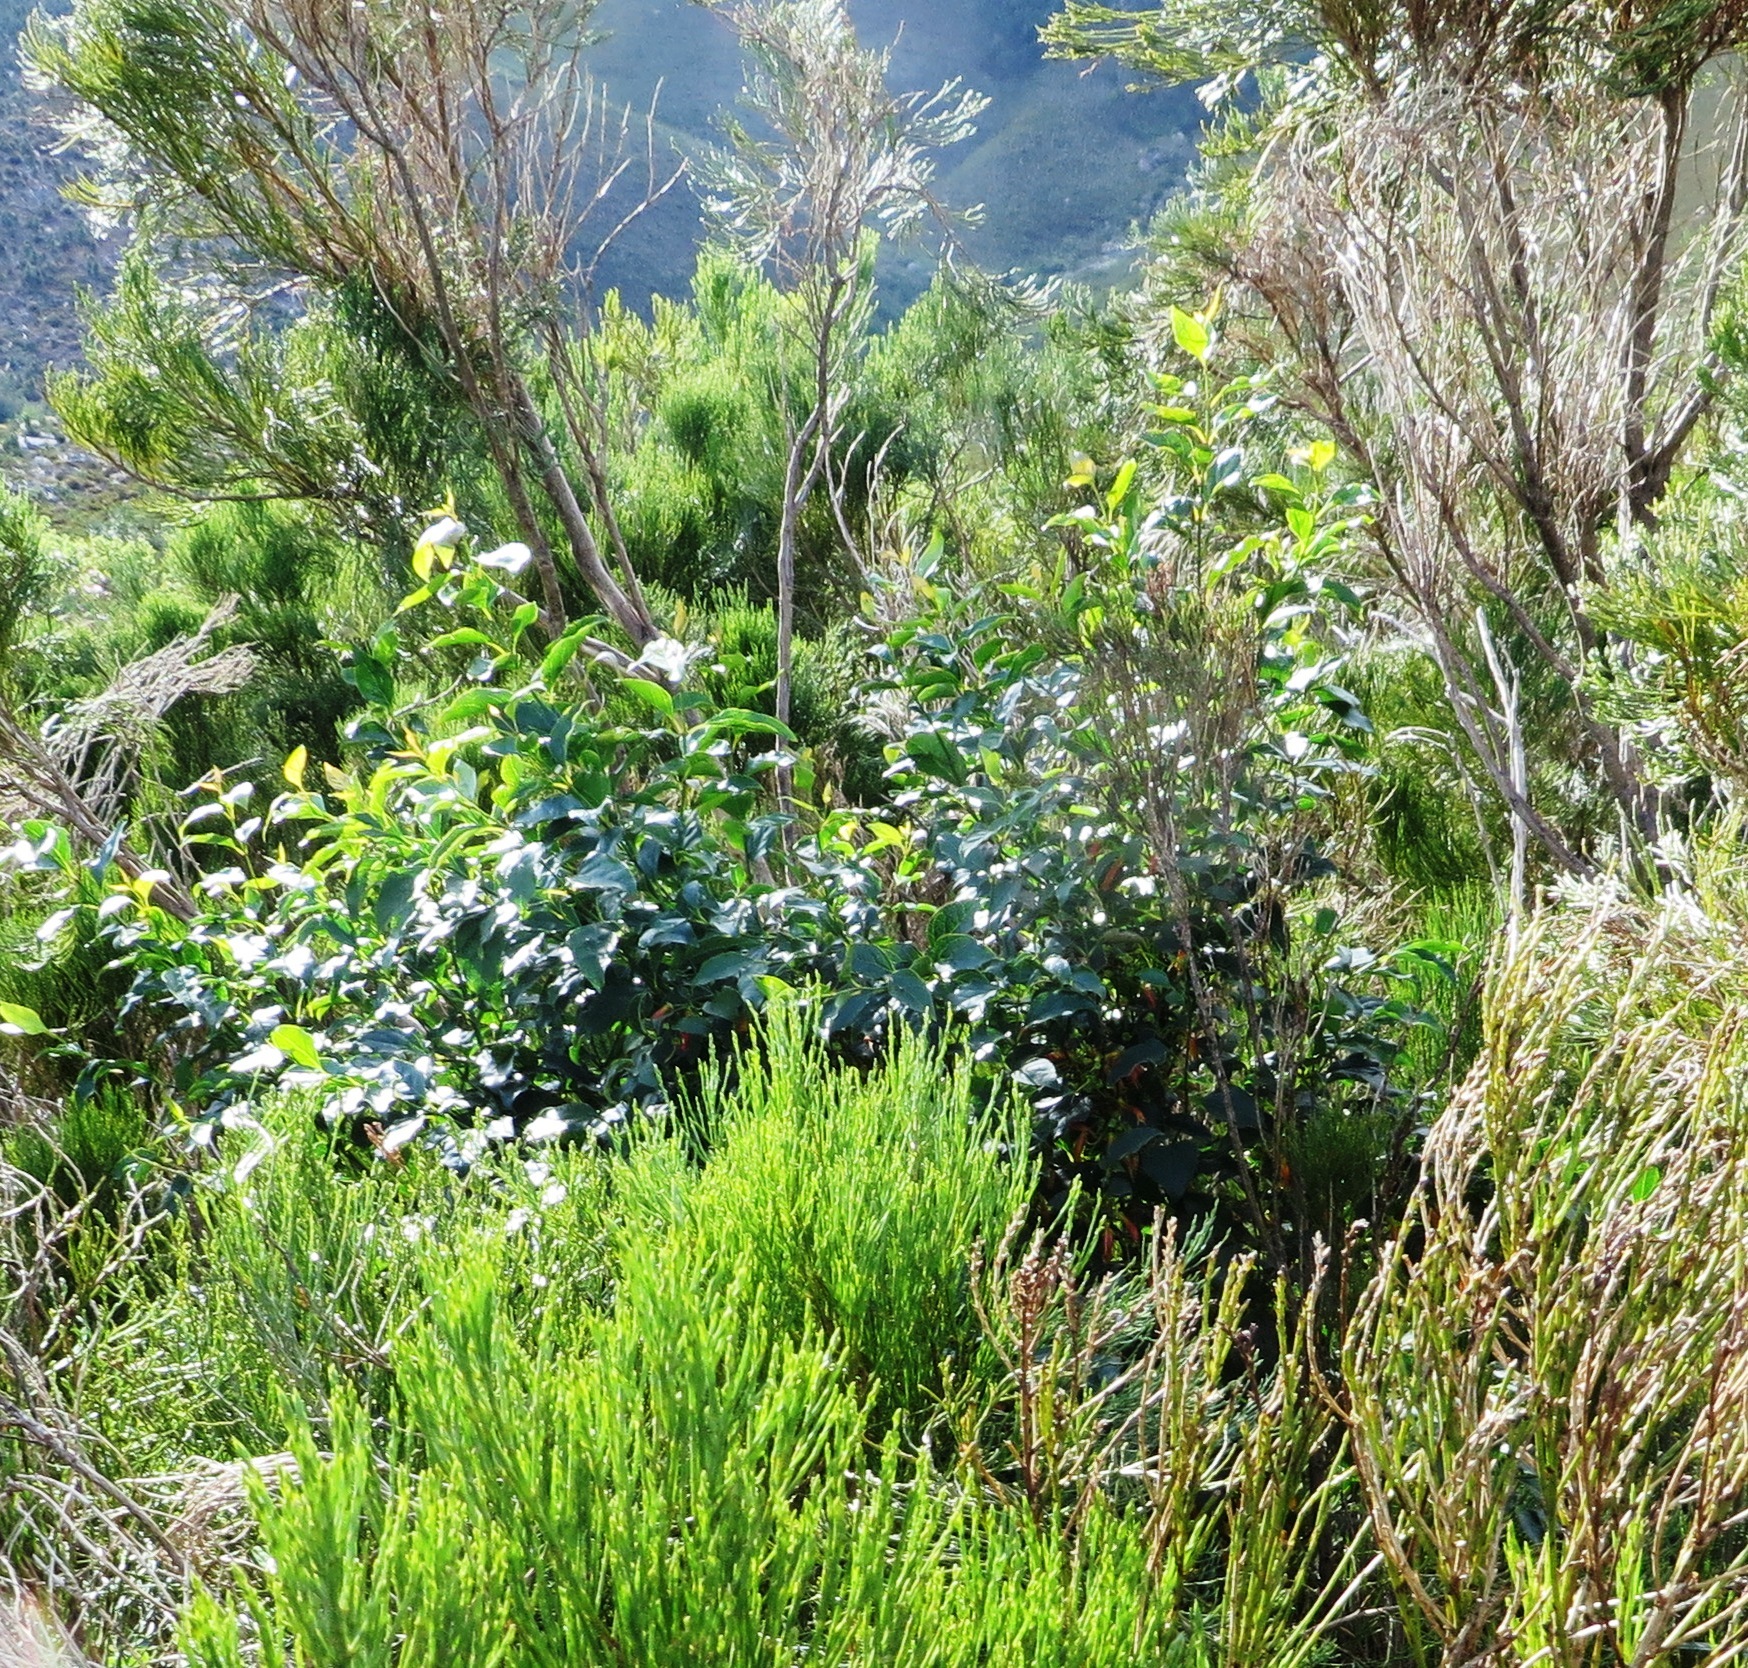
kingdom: Plantae
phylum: Tracheophyta
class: Magnoliopsida
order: Lamiales
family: Stilbaceae
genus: Halleria
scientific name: Halleria lucida
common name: Tree fuschia
